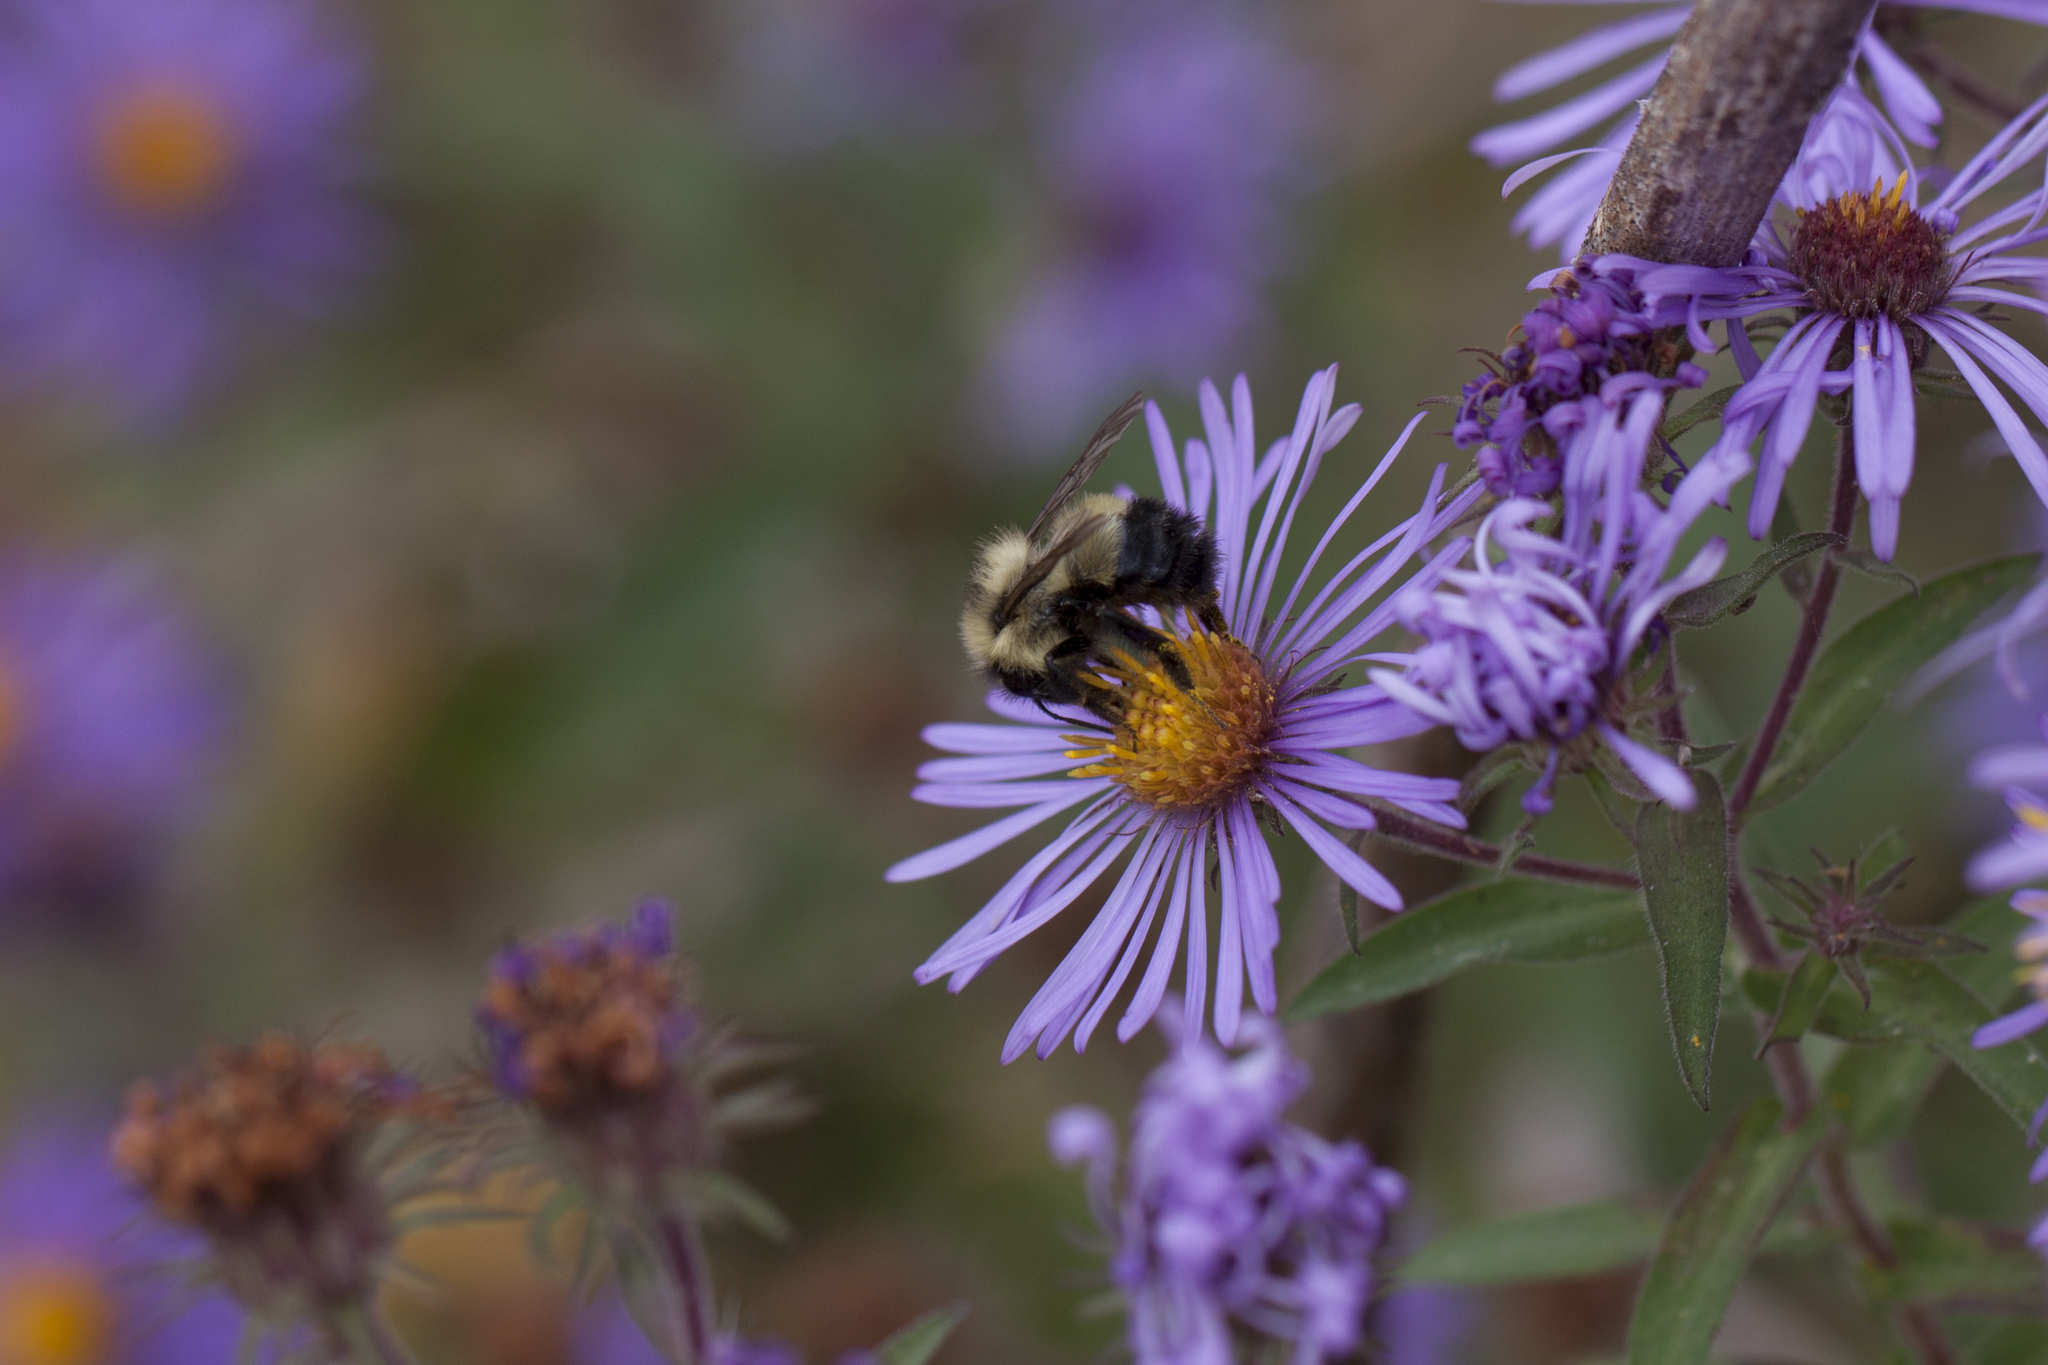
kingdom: Animalia
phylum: Arthropoda
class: Insecta
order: Hymenoptera
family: Apidae
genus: Bombus
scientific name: Bombus vagans
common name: Half-black bumble bee
